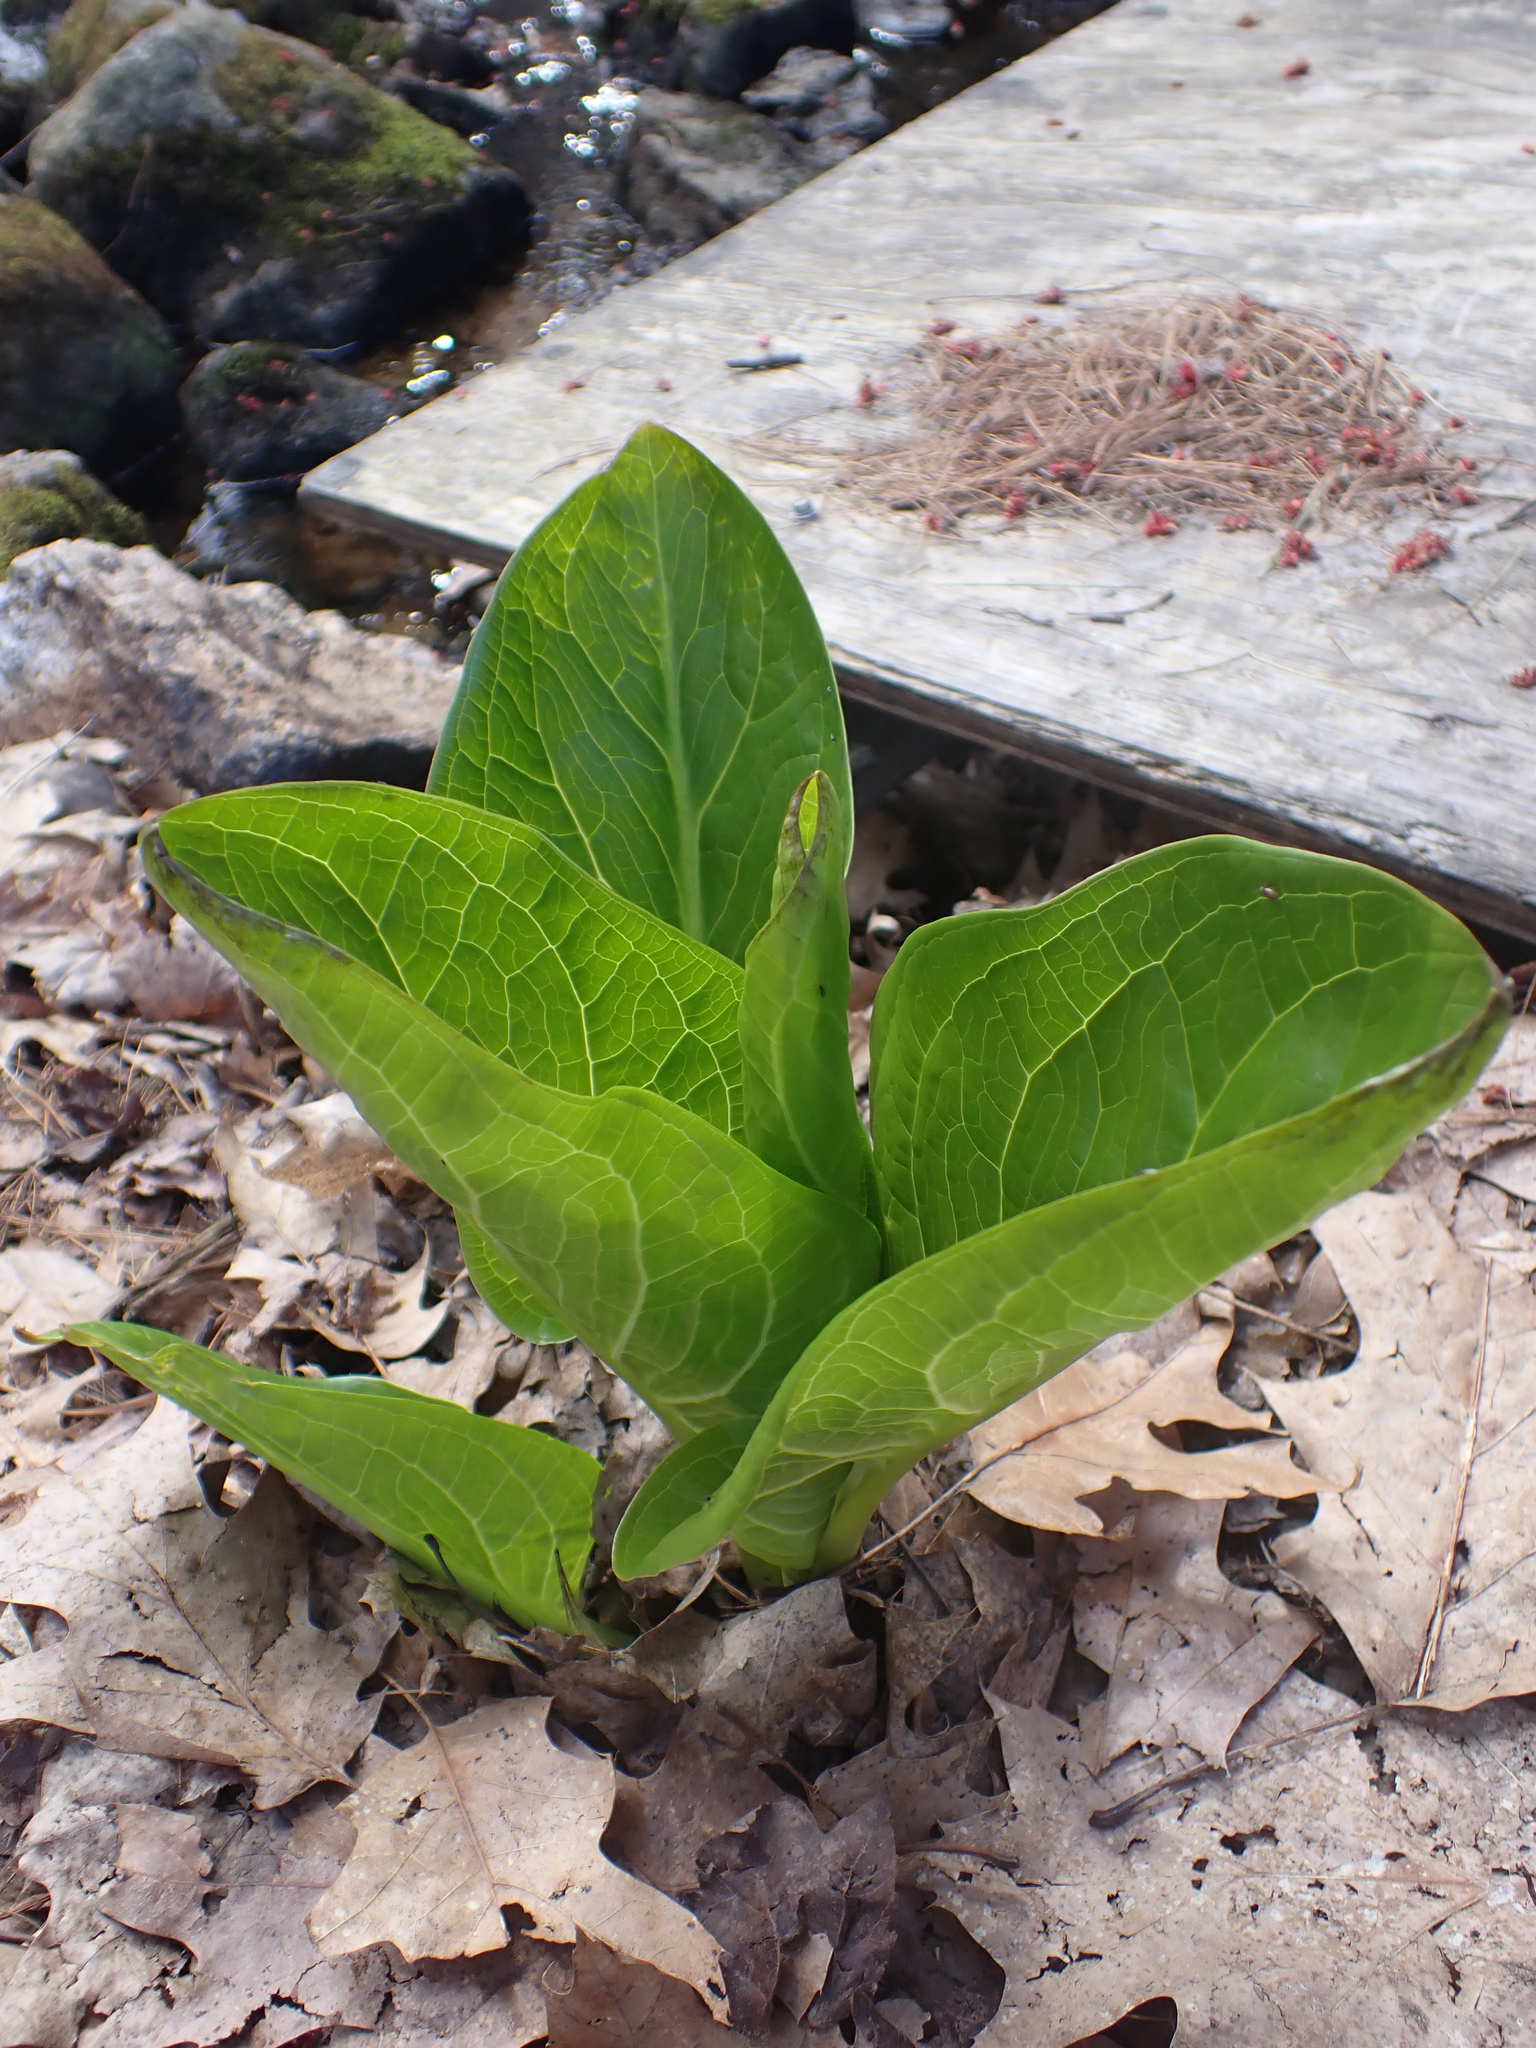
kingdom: Plantae
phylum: Tracheophyta
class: Liliopsida
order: Alismatales
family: Araceae
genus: Symplocarpus
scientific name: Symplocarpus foetidus
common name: Eastern skunk cabbage
